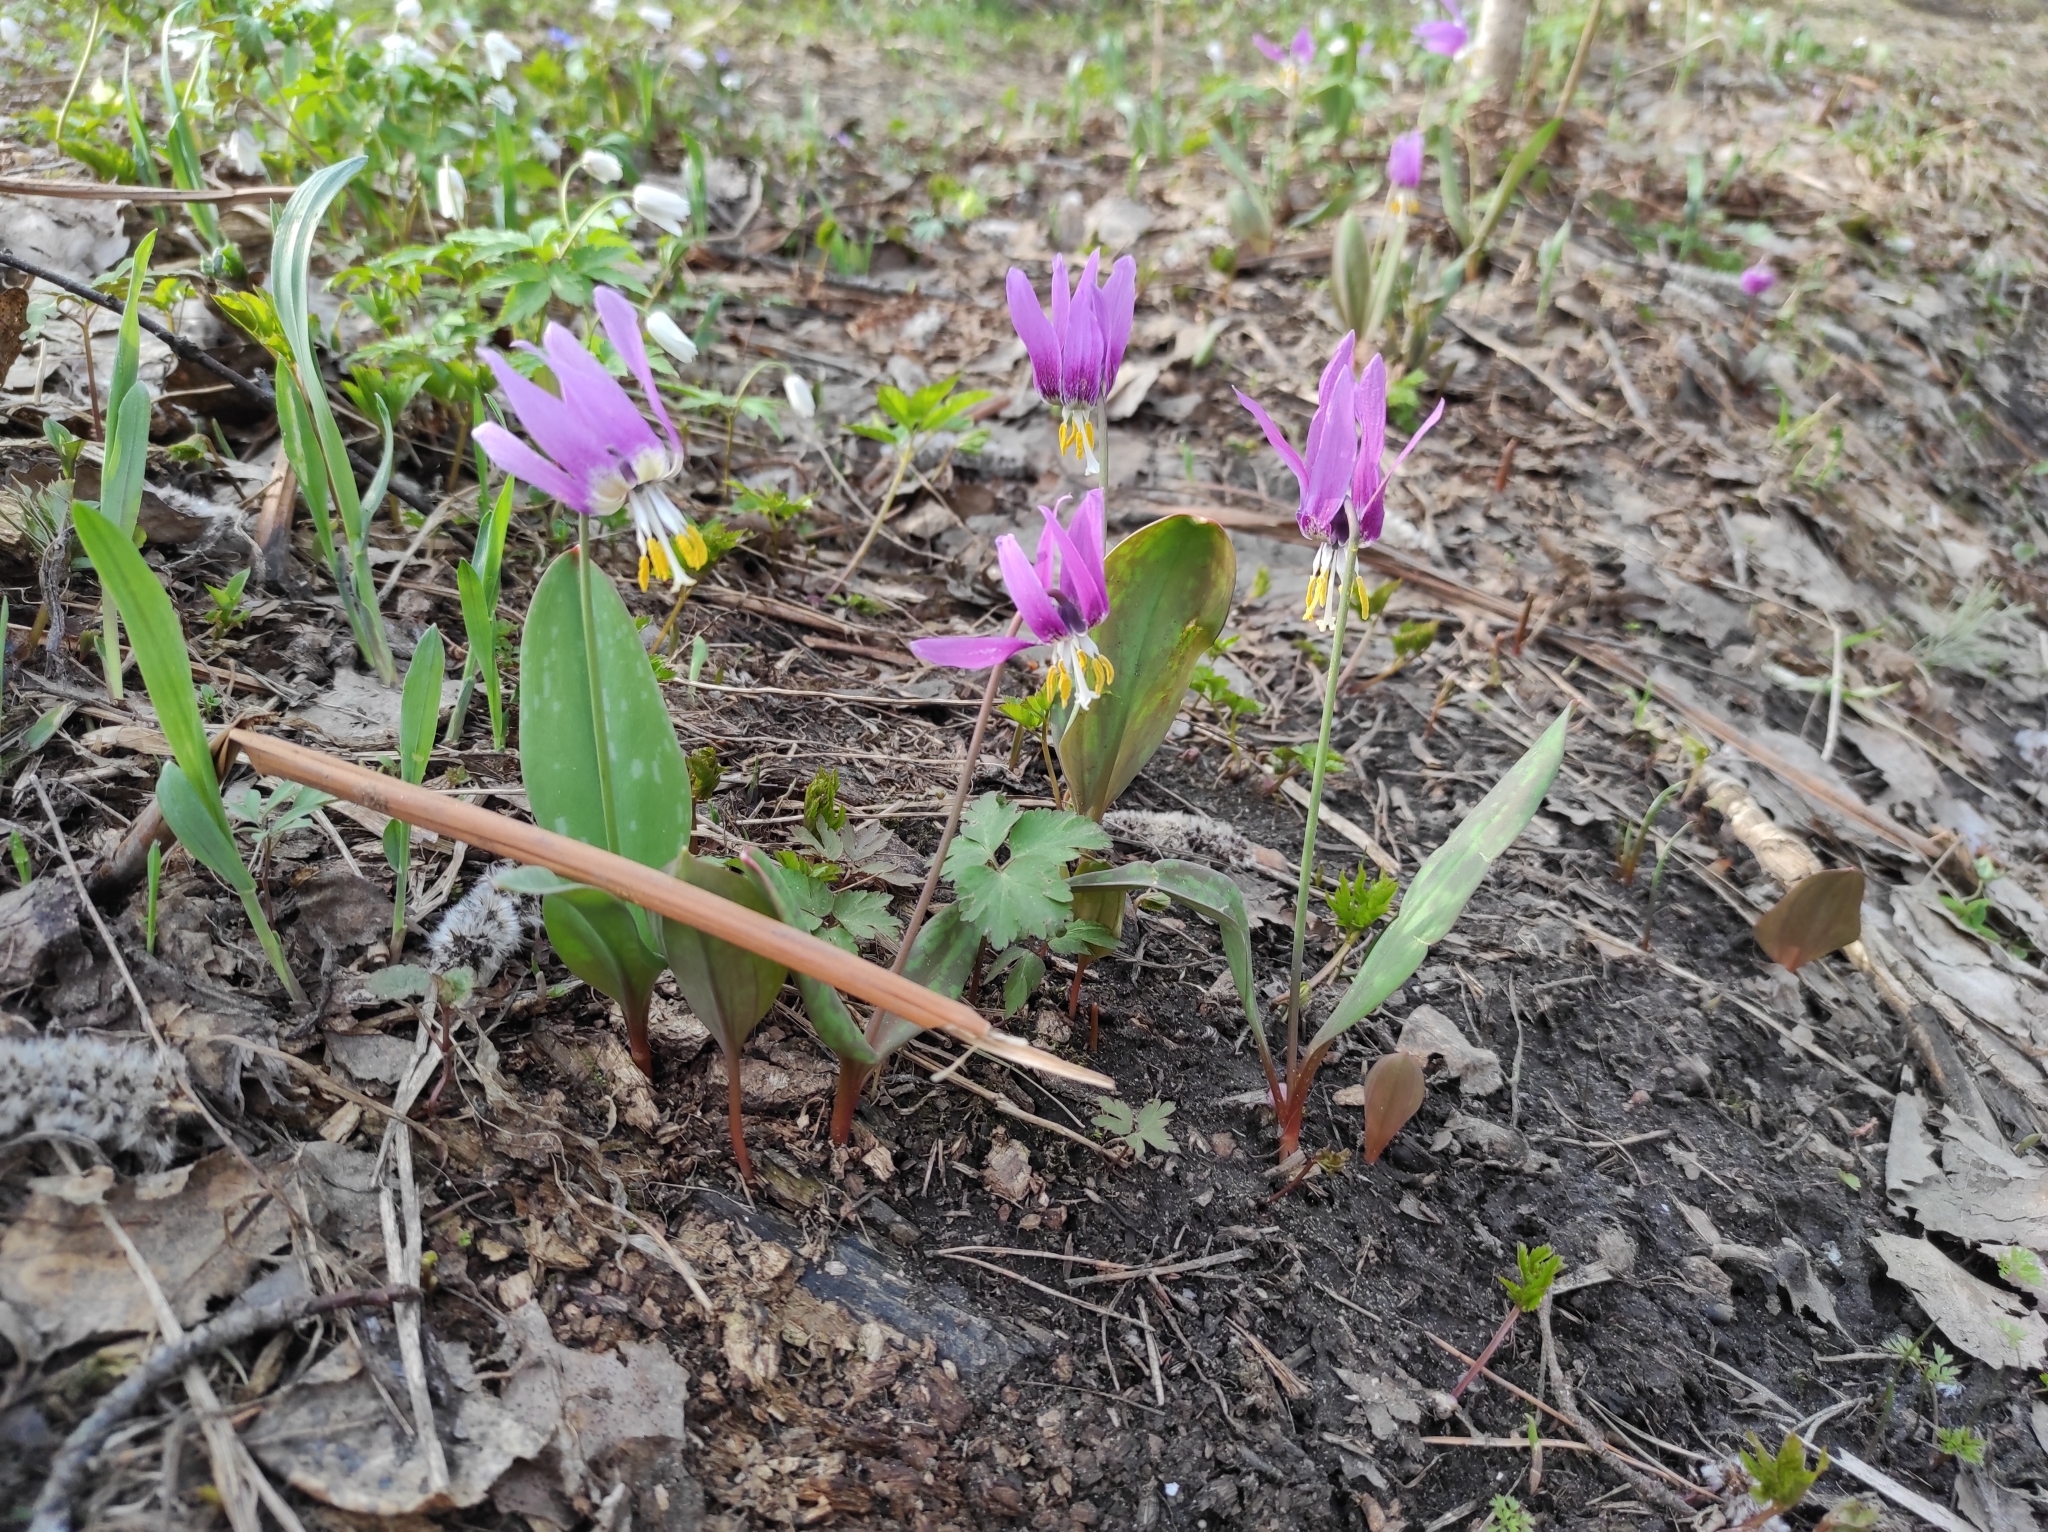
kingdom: Plantae
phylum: Tracheophyta
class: Liliopsida
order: Liliales
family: Liliaceae
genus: Erythronium
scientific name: Erythronium sibiricum
